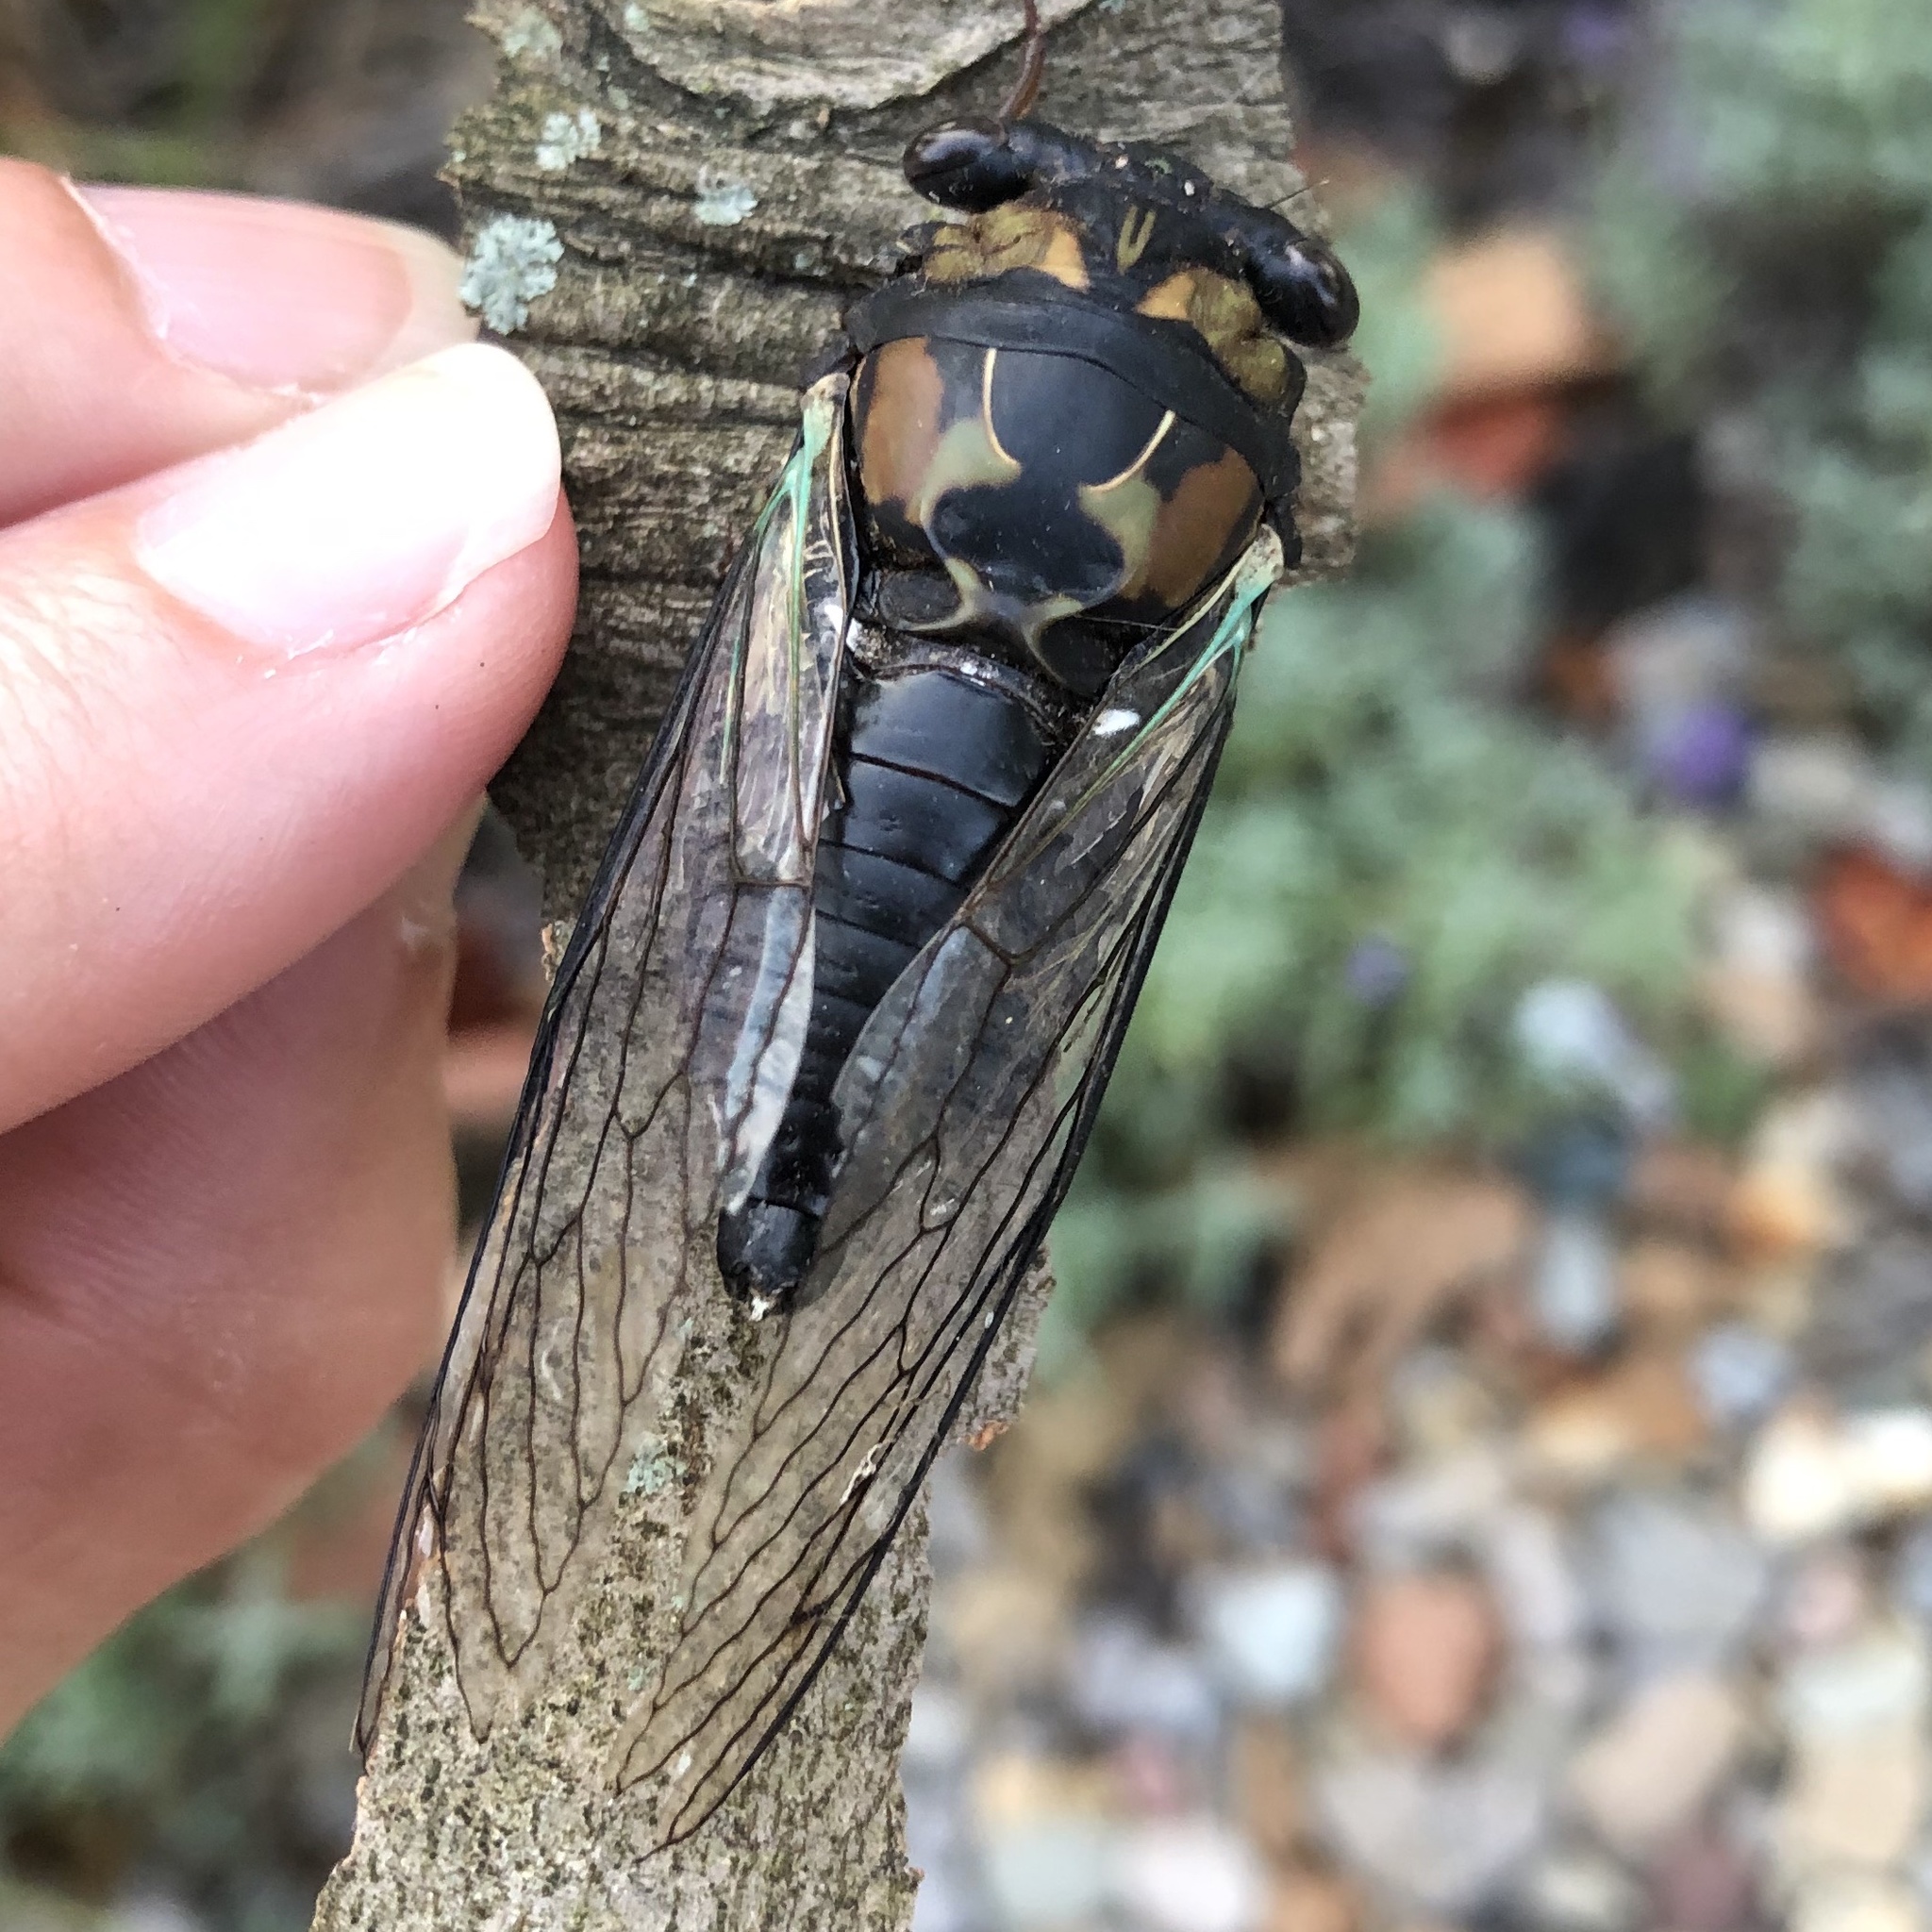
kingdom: Animalia
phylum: Arthropoda
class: Insecta
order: Hemiptera
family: Cicadidae
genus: Neotibicen
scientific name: Neotibicen lyricen
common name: Lyric cicada
